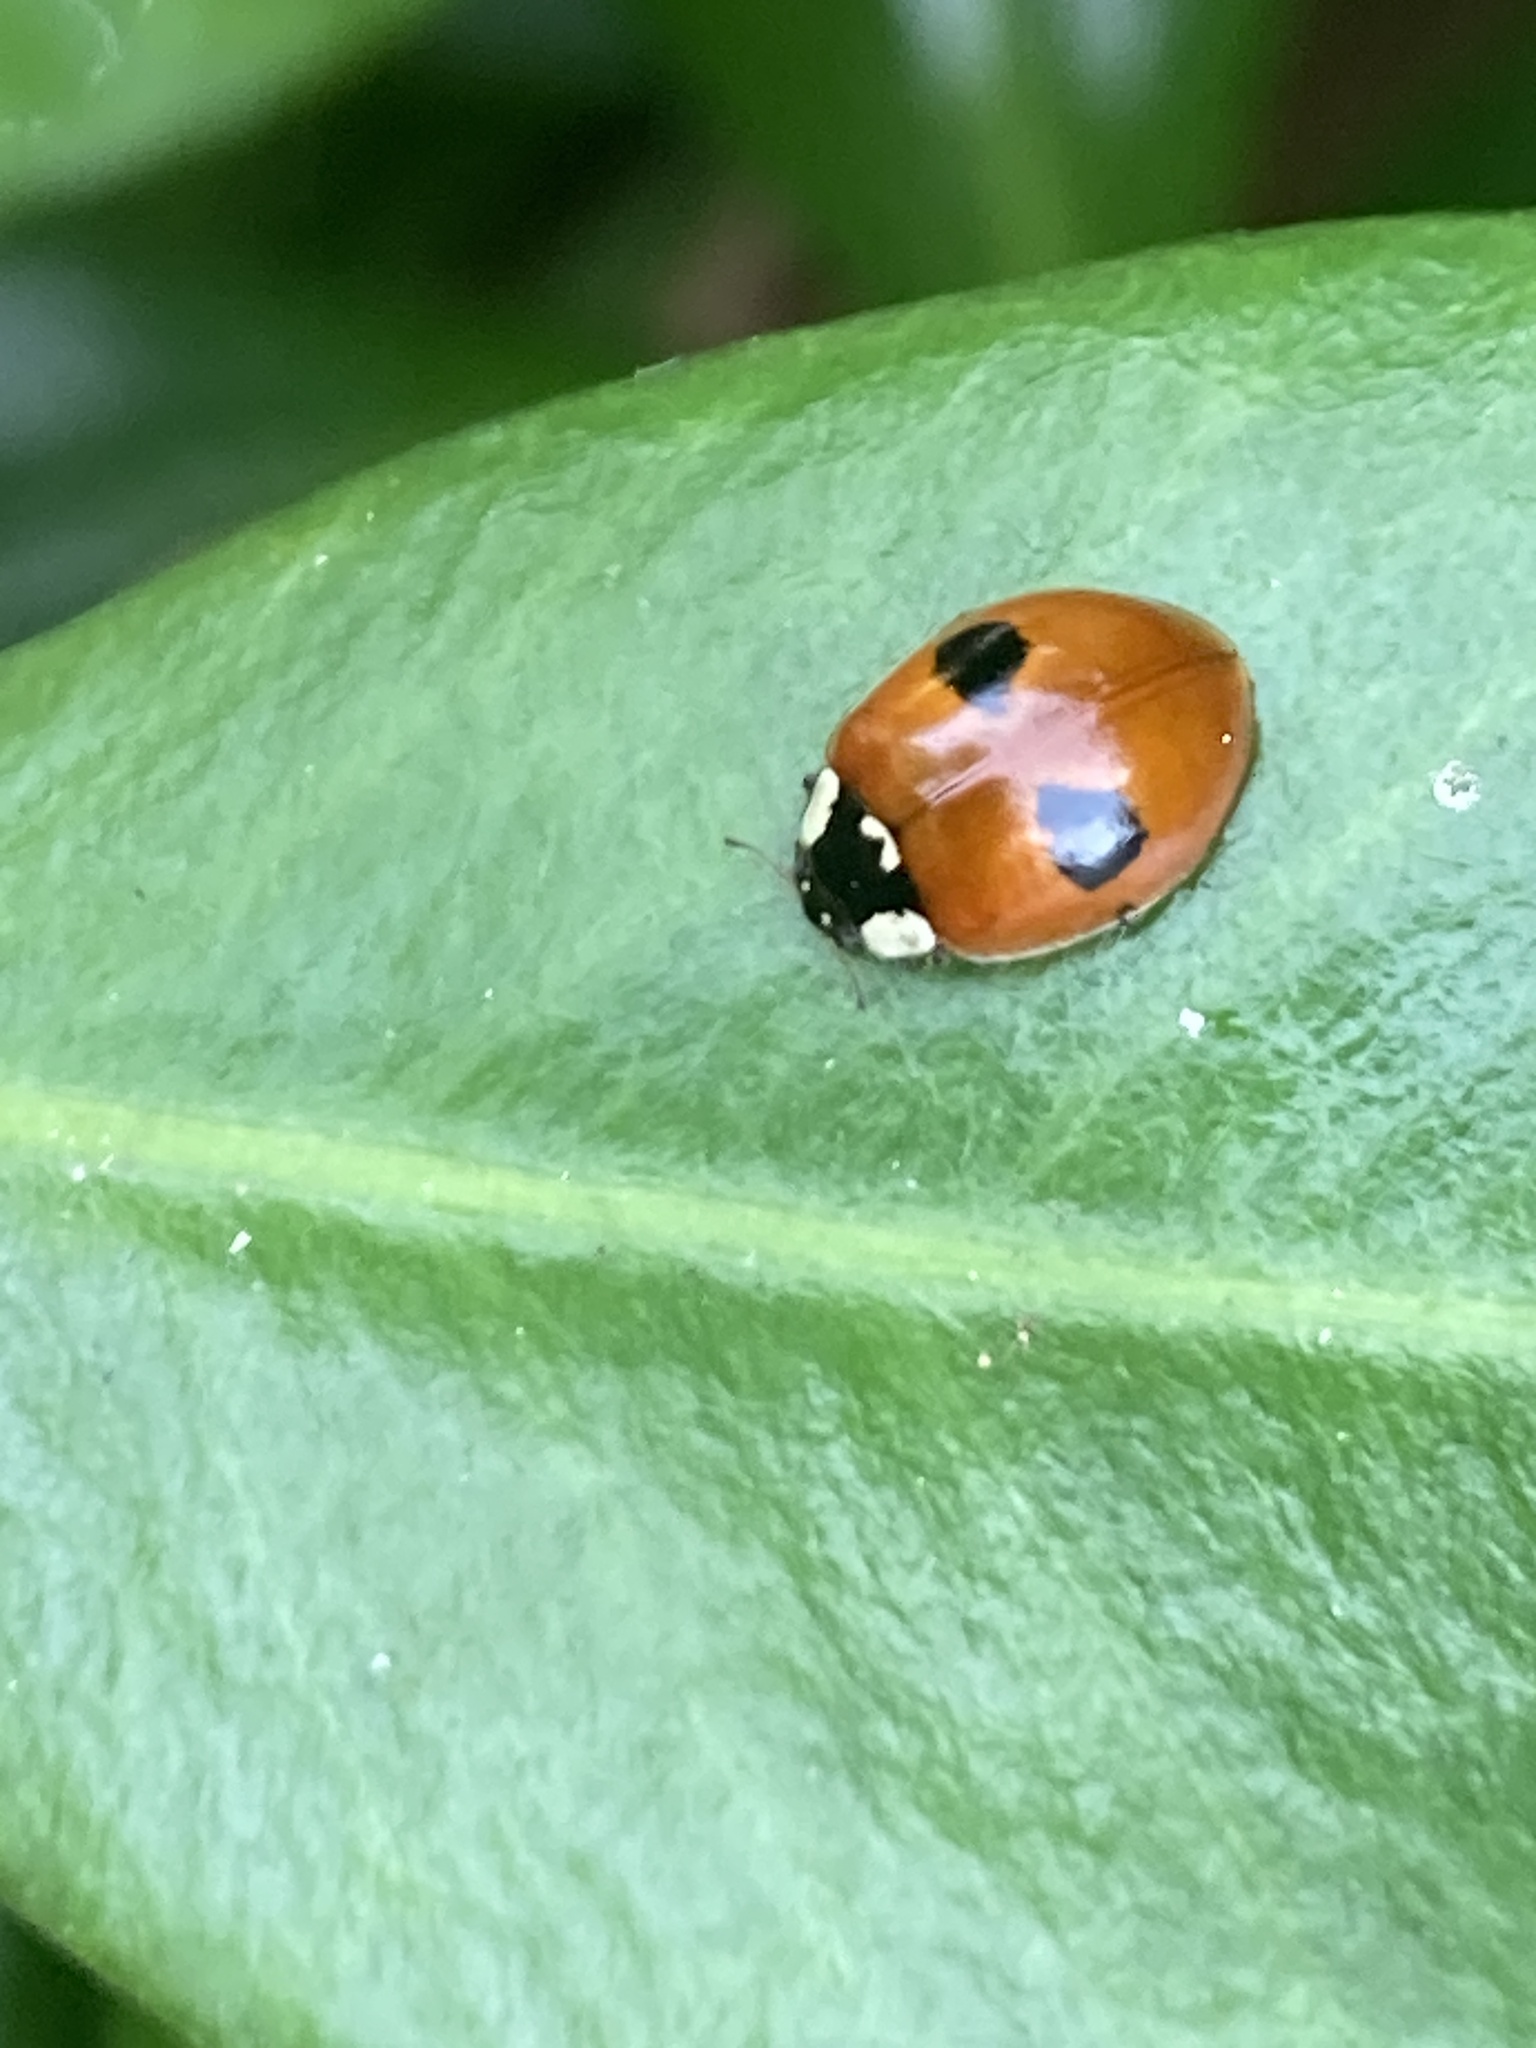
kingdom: Animalia
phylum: Arthropoda
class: Insecta
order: Coleoptera
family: Coccinellidae
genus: Adalia
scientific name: Adalia bipunctata
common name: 2-spot ladybird
